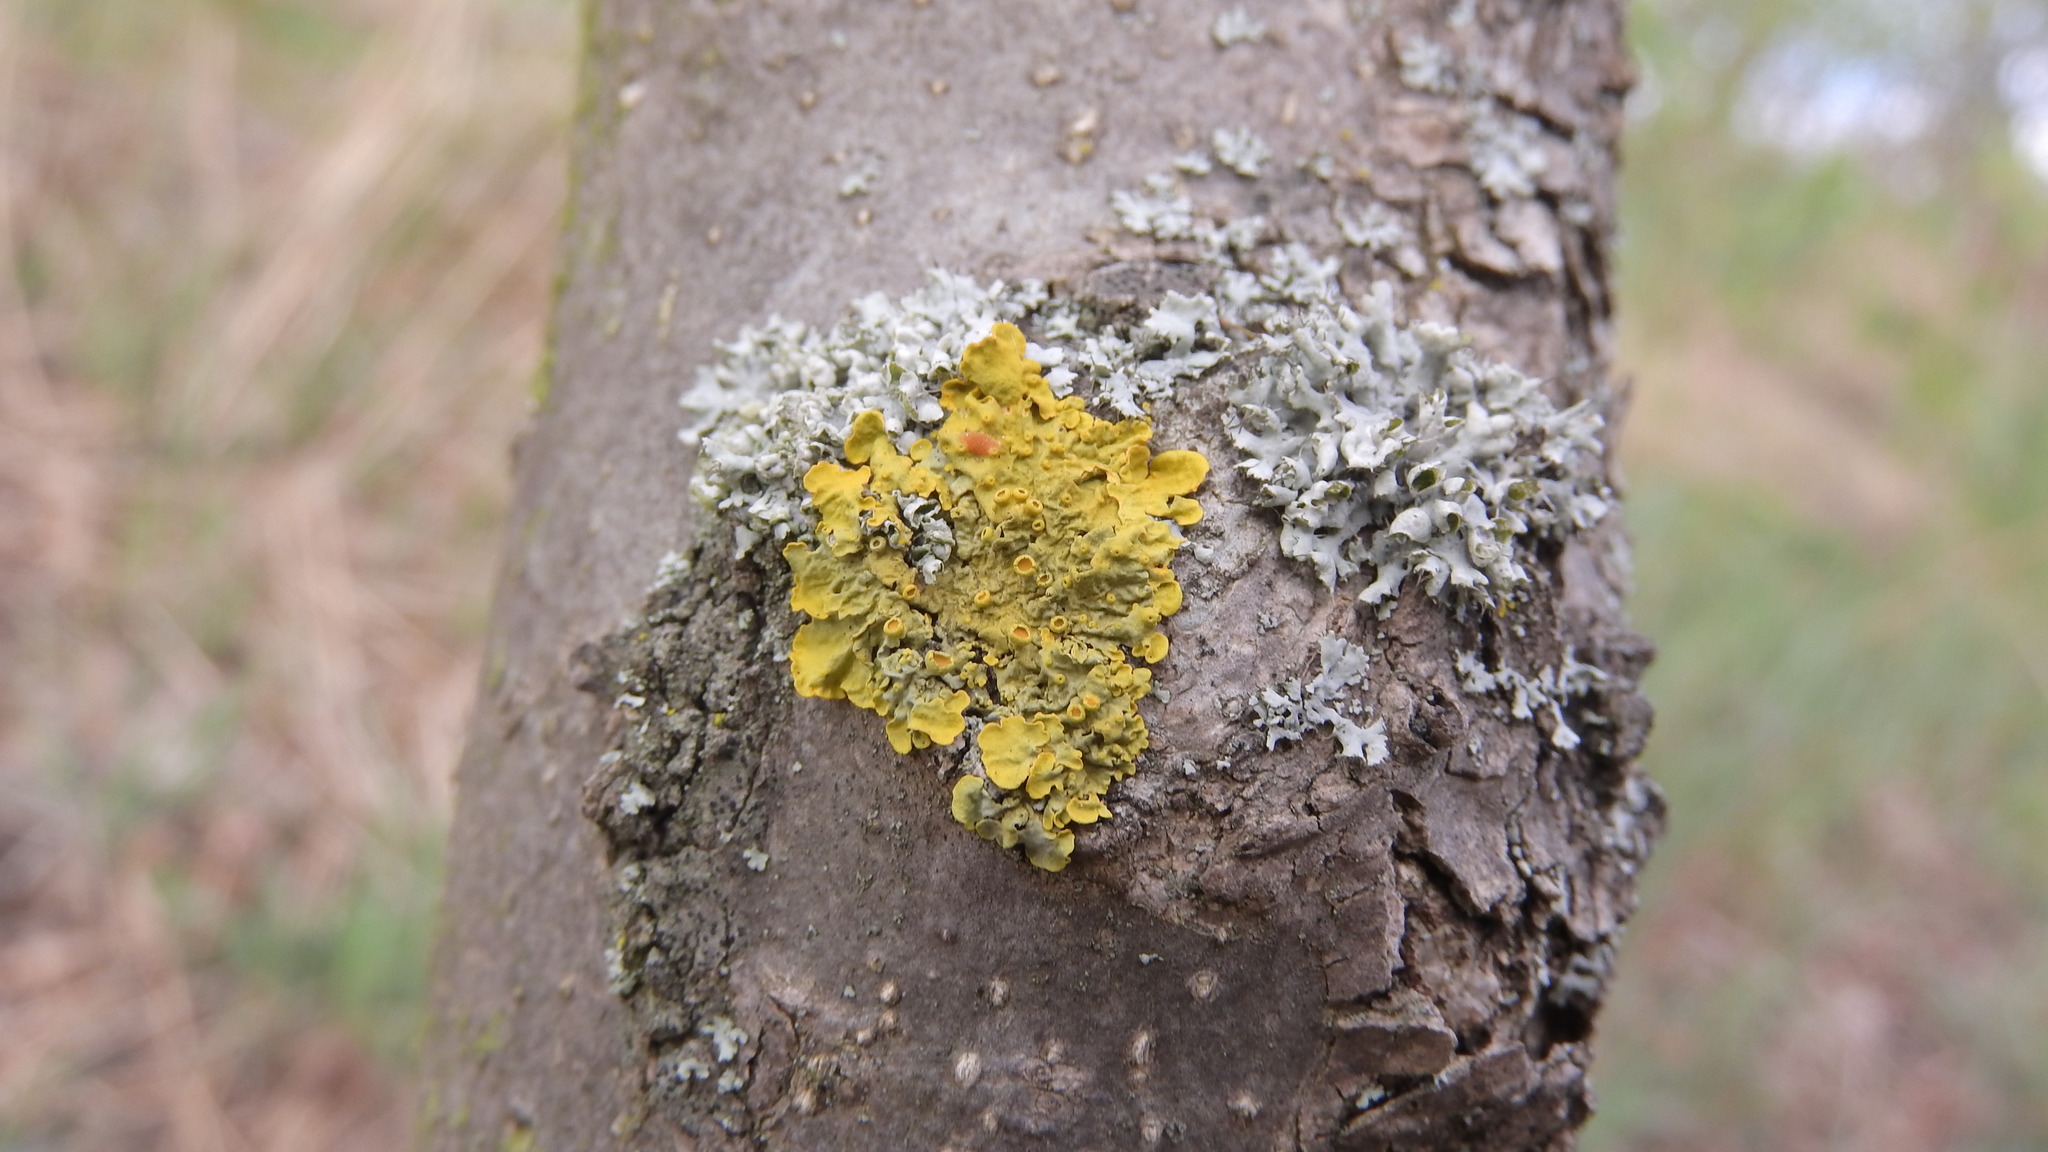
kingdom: Fungi
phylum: Ascomycota
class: Lecanoromycetes
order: Teloschistales
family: Teloschistaceae
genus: Xanthoria
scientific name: Xanthoria parietina
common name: Common orange lichen
